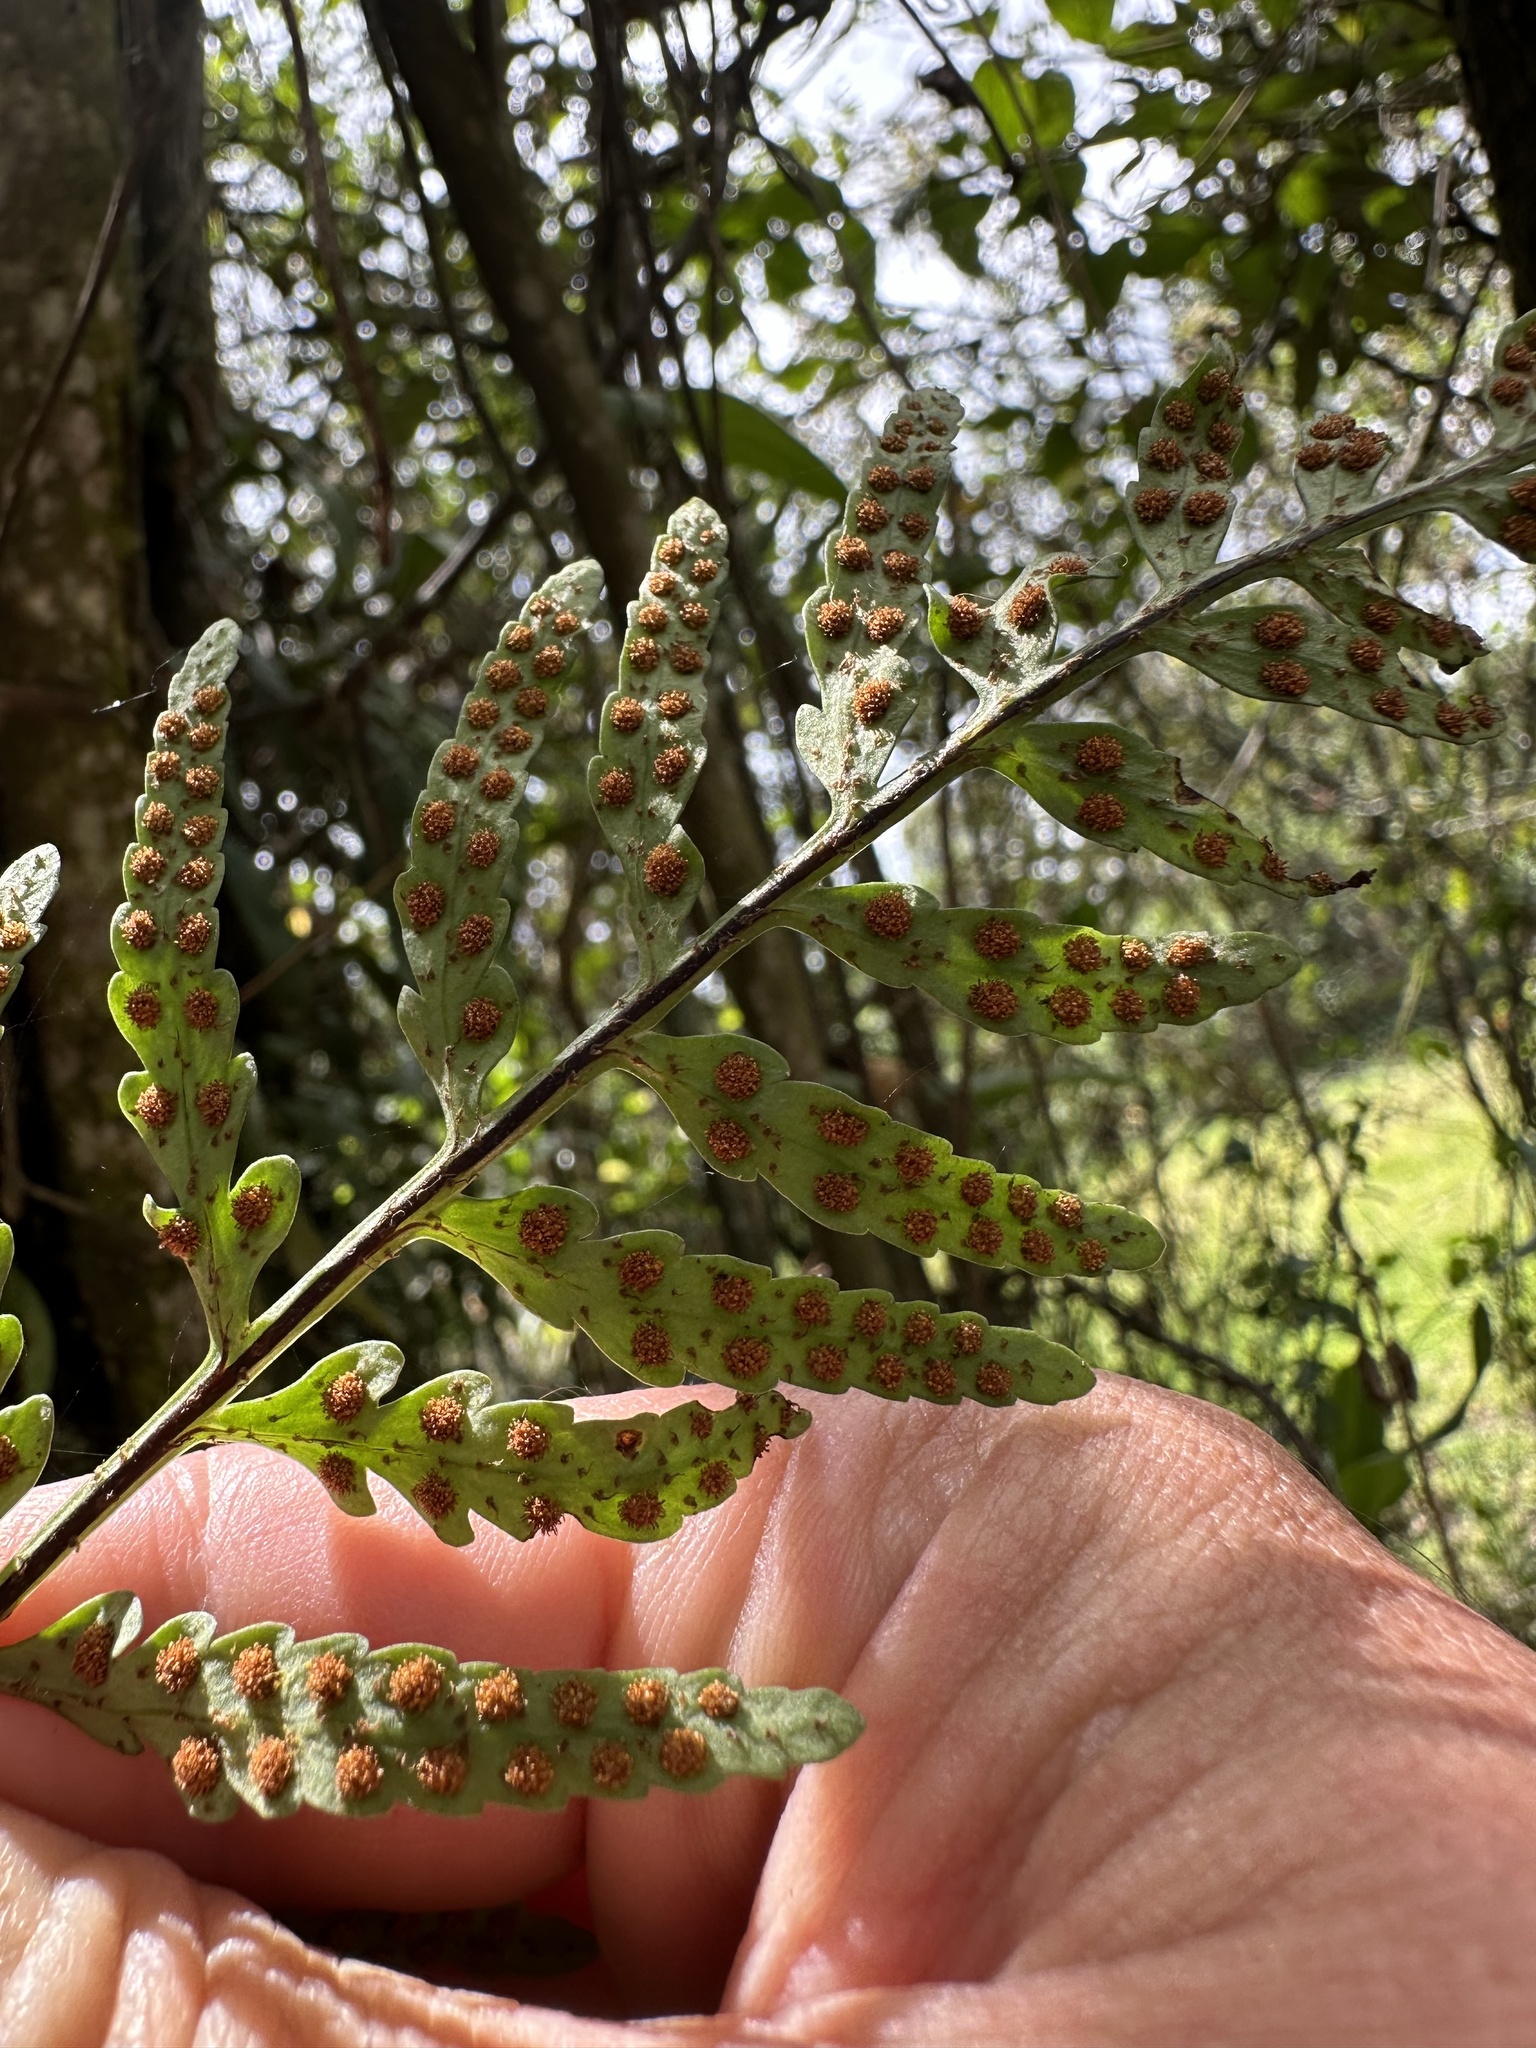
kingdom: Plantae
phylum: Tracheophyta
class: Polypodiopsida
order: Polypodiales
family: Polypodiaceae
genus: Pleopeltis
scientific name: Pleopeltis murora
